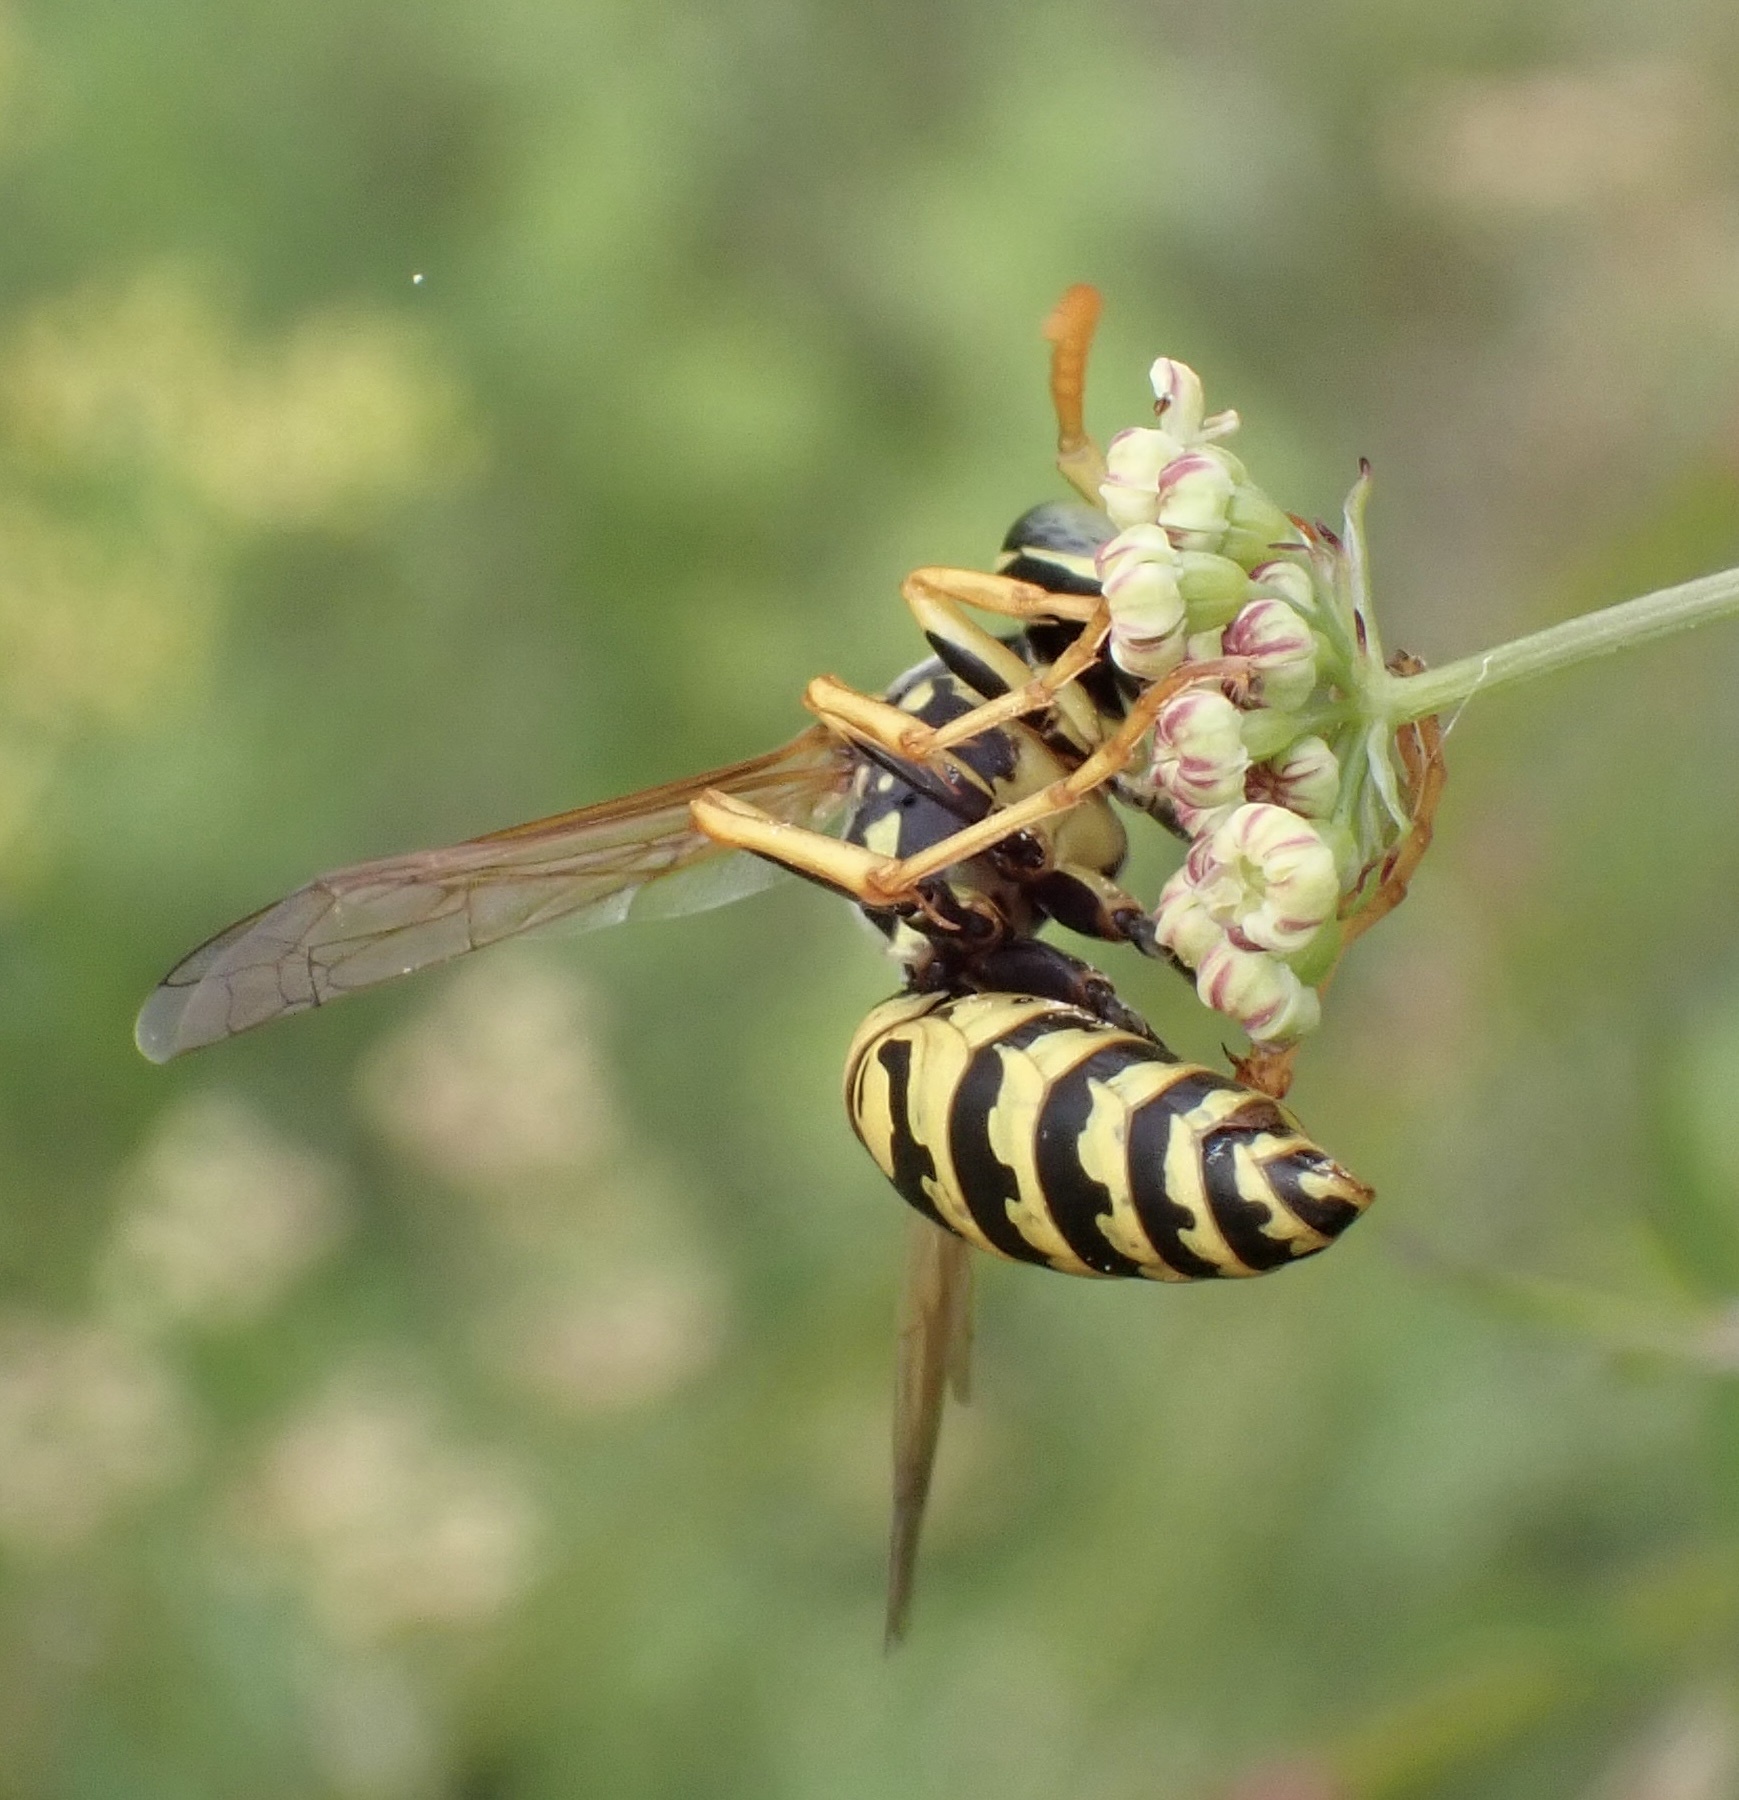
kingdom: Animalia
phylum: Arthropoda
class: Insecta
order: Hymenoptera
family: Eumenidae
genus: Polistes
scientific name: Polistes dominula
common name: Paper wasp
